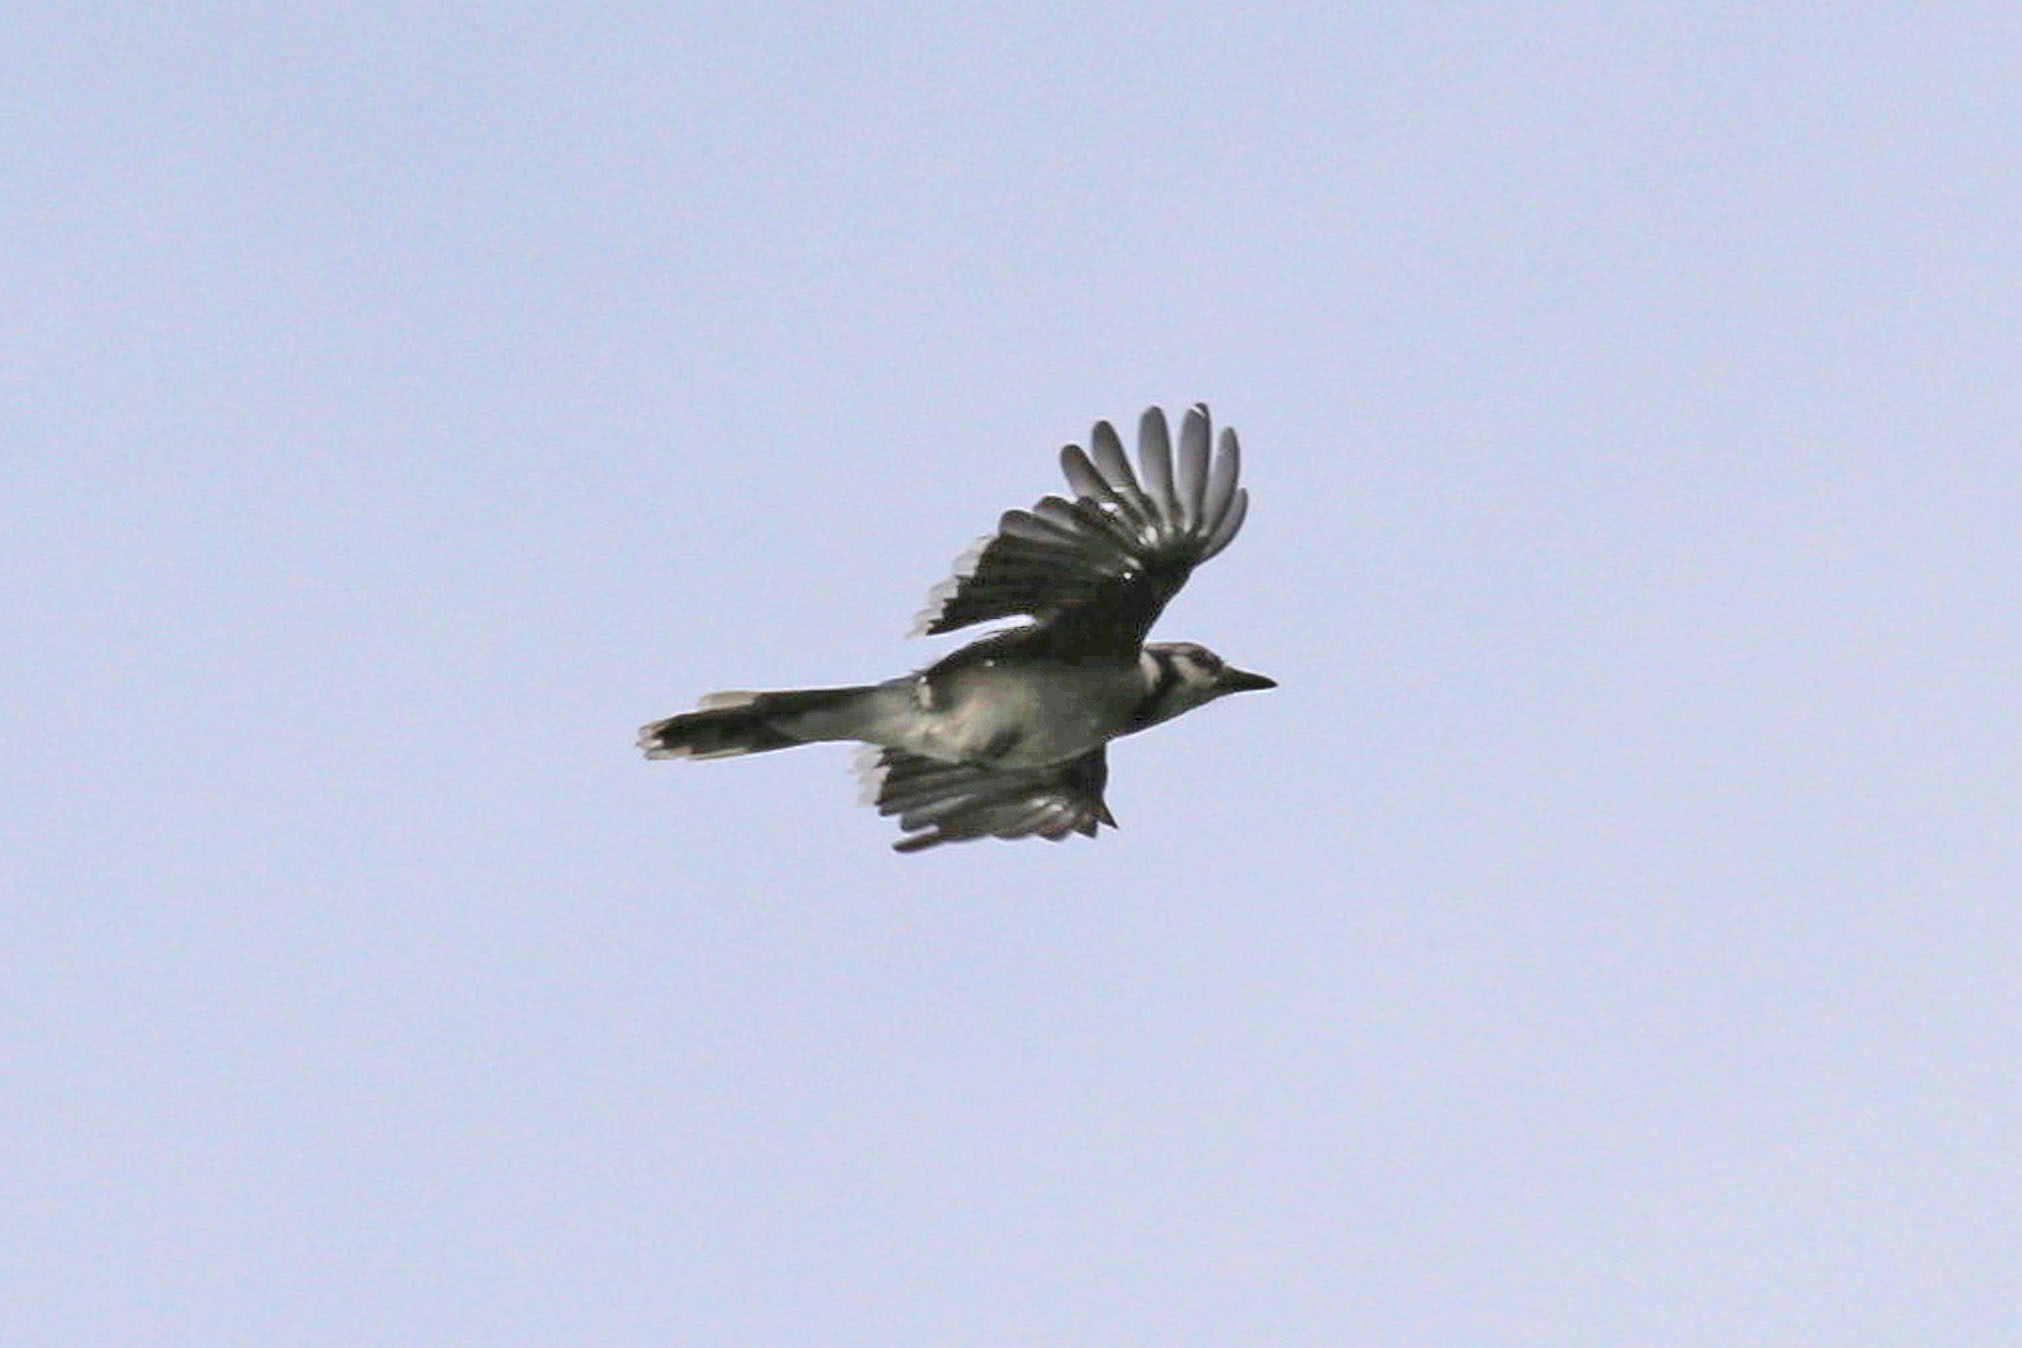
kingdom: Animalia
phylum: Chordata
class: Aves
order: Passeriformes
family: Corvidae
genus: Cyanocitta
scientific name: Cyanocitta cristata
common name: Blue jay
